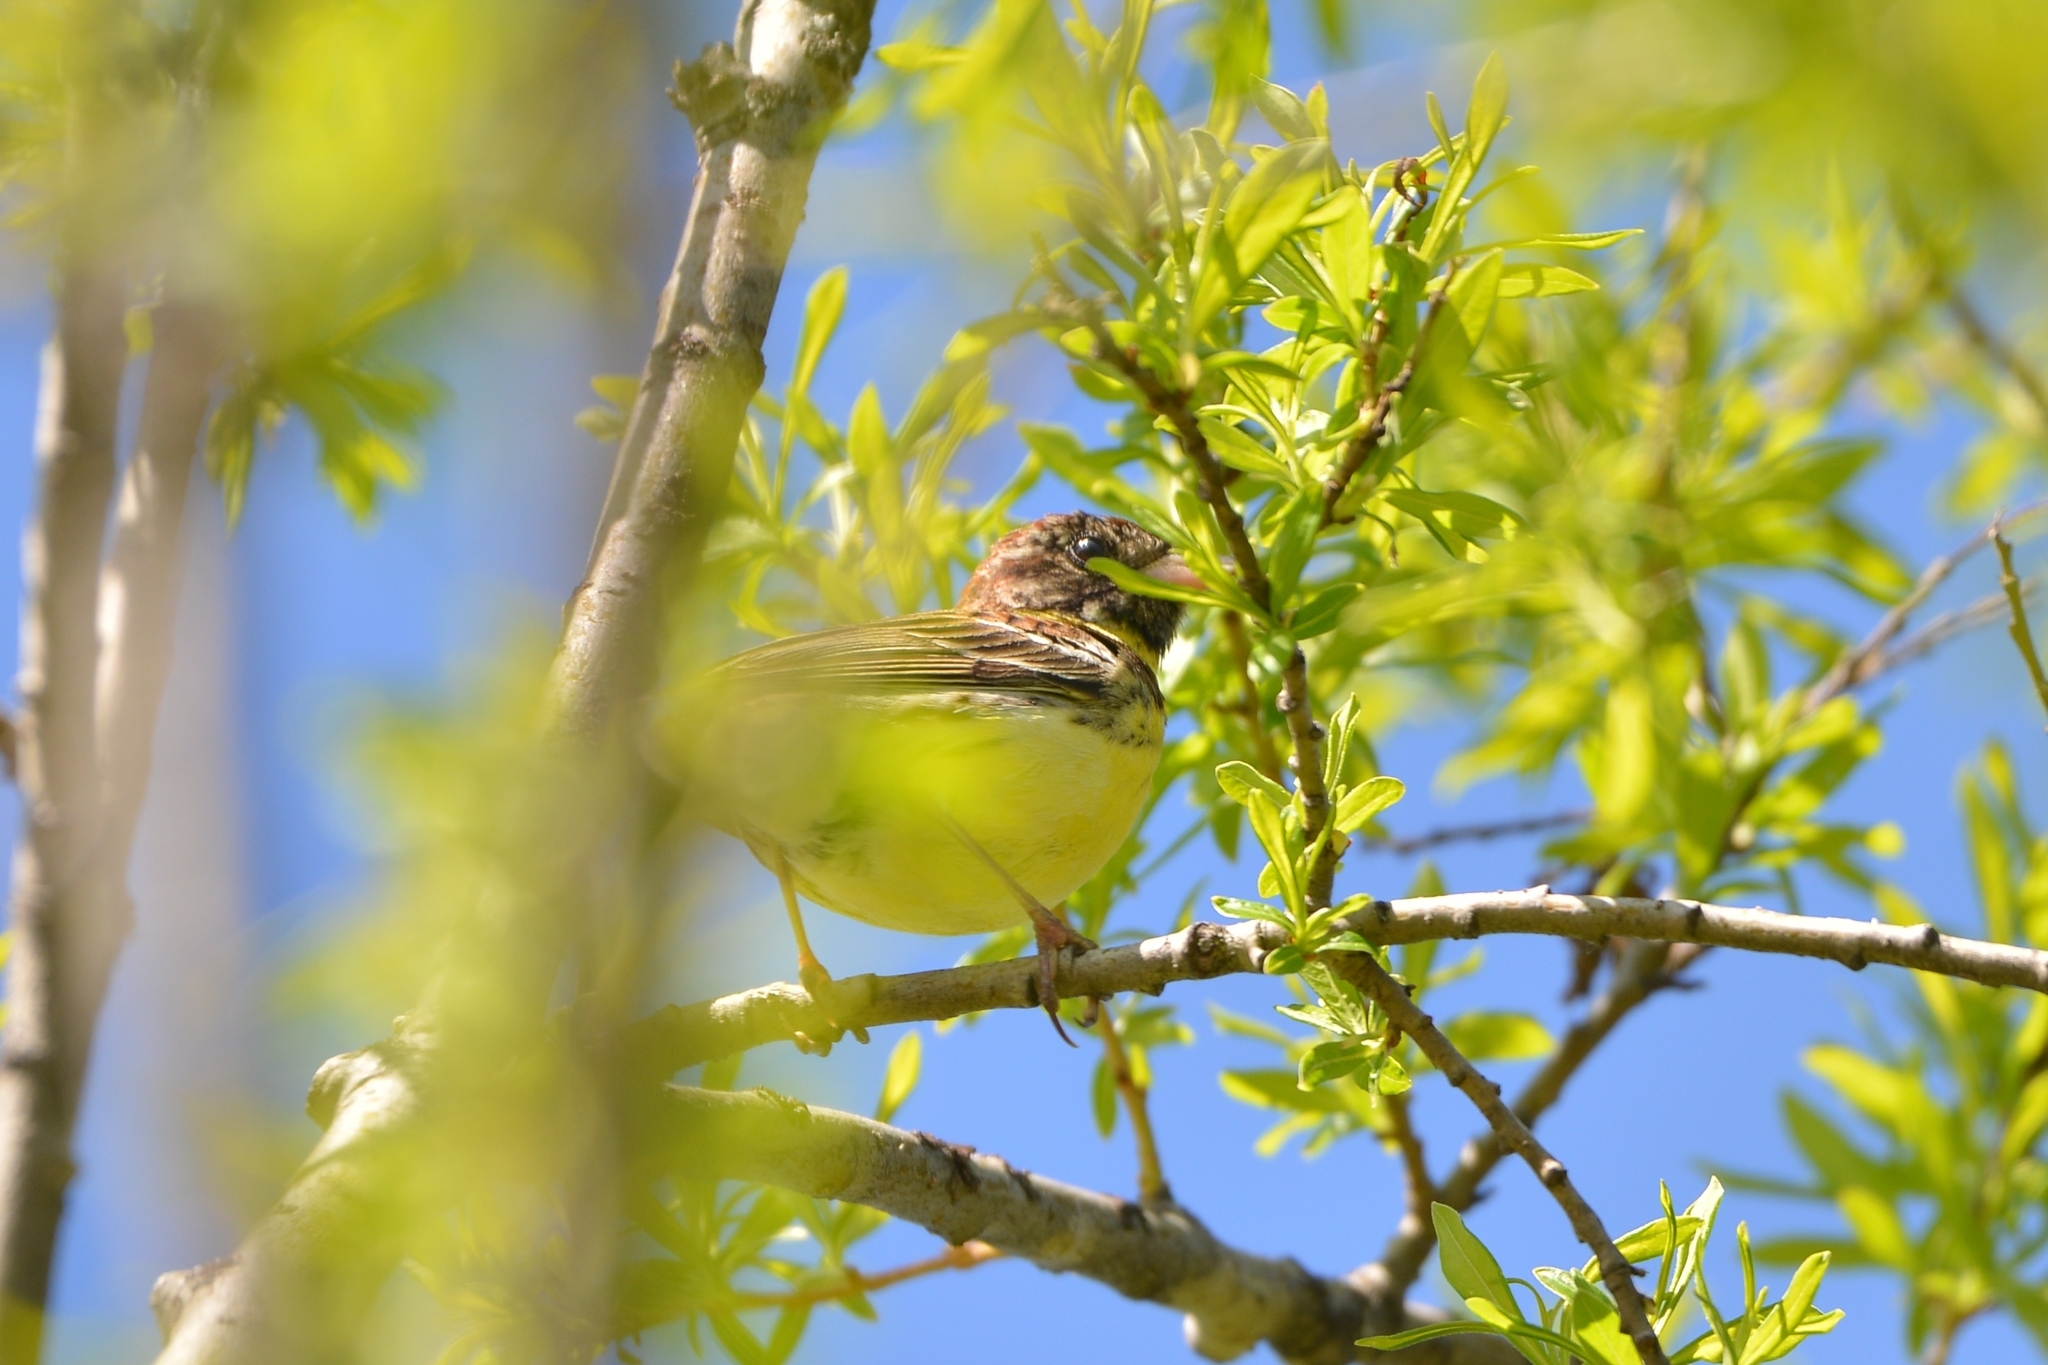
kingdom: Animalia
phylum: Chordata
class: Aves
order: Passeriformes
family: Emberizidae
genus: Emberiza
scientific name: Emberiza aureola
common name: Yellow-breasted bunting
